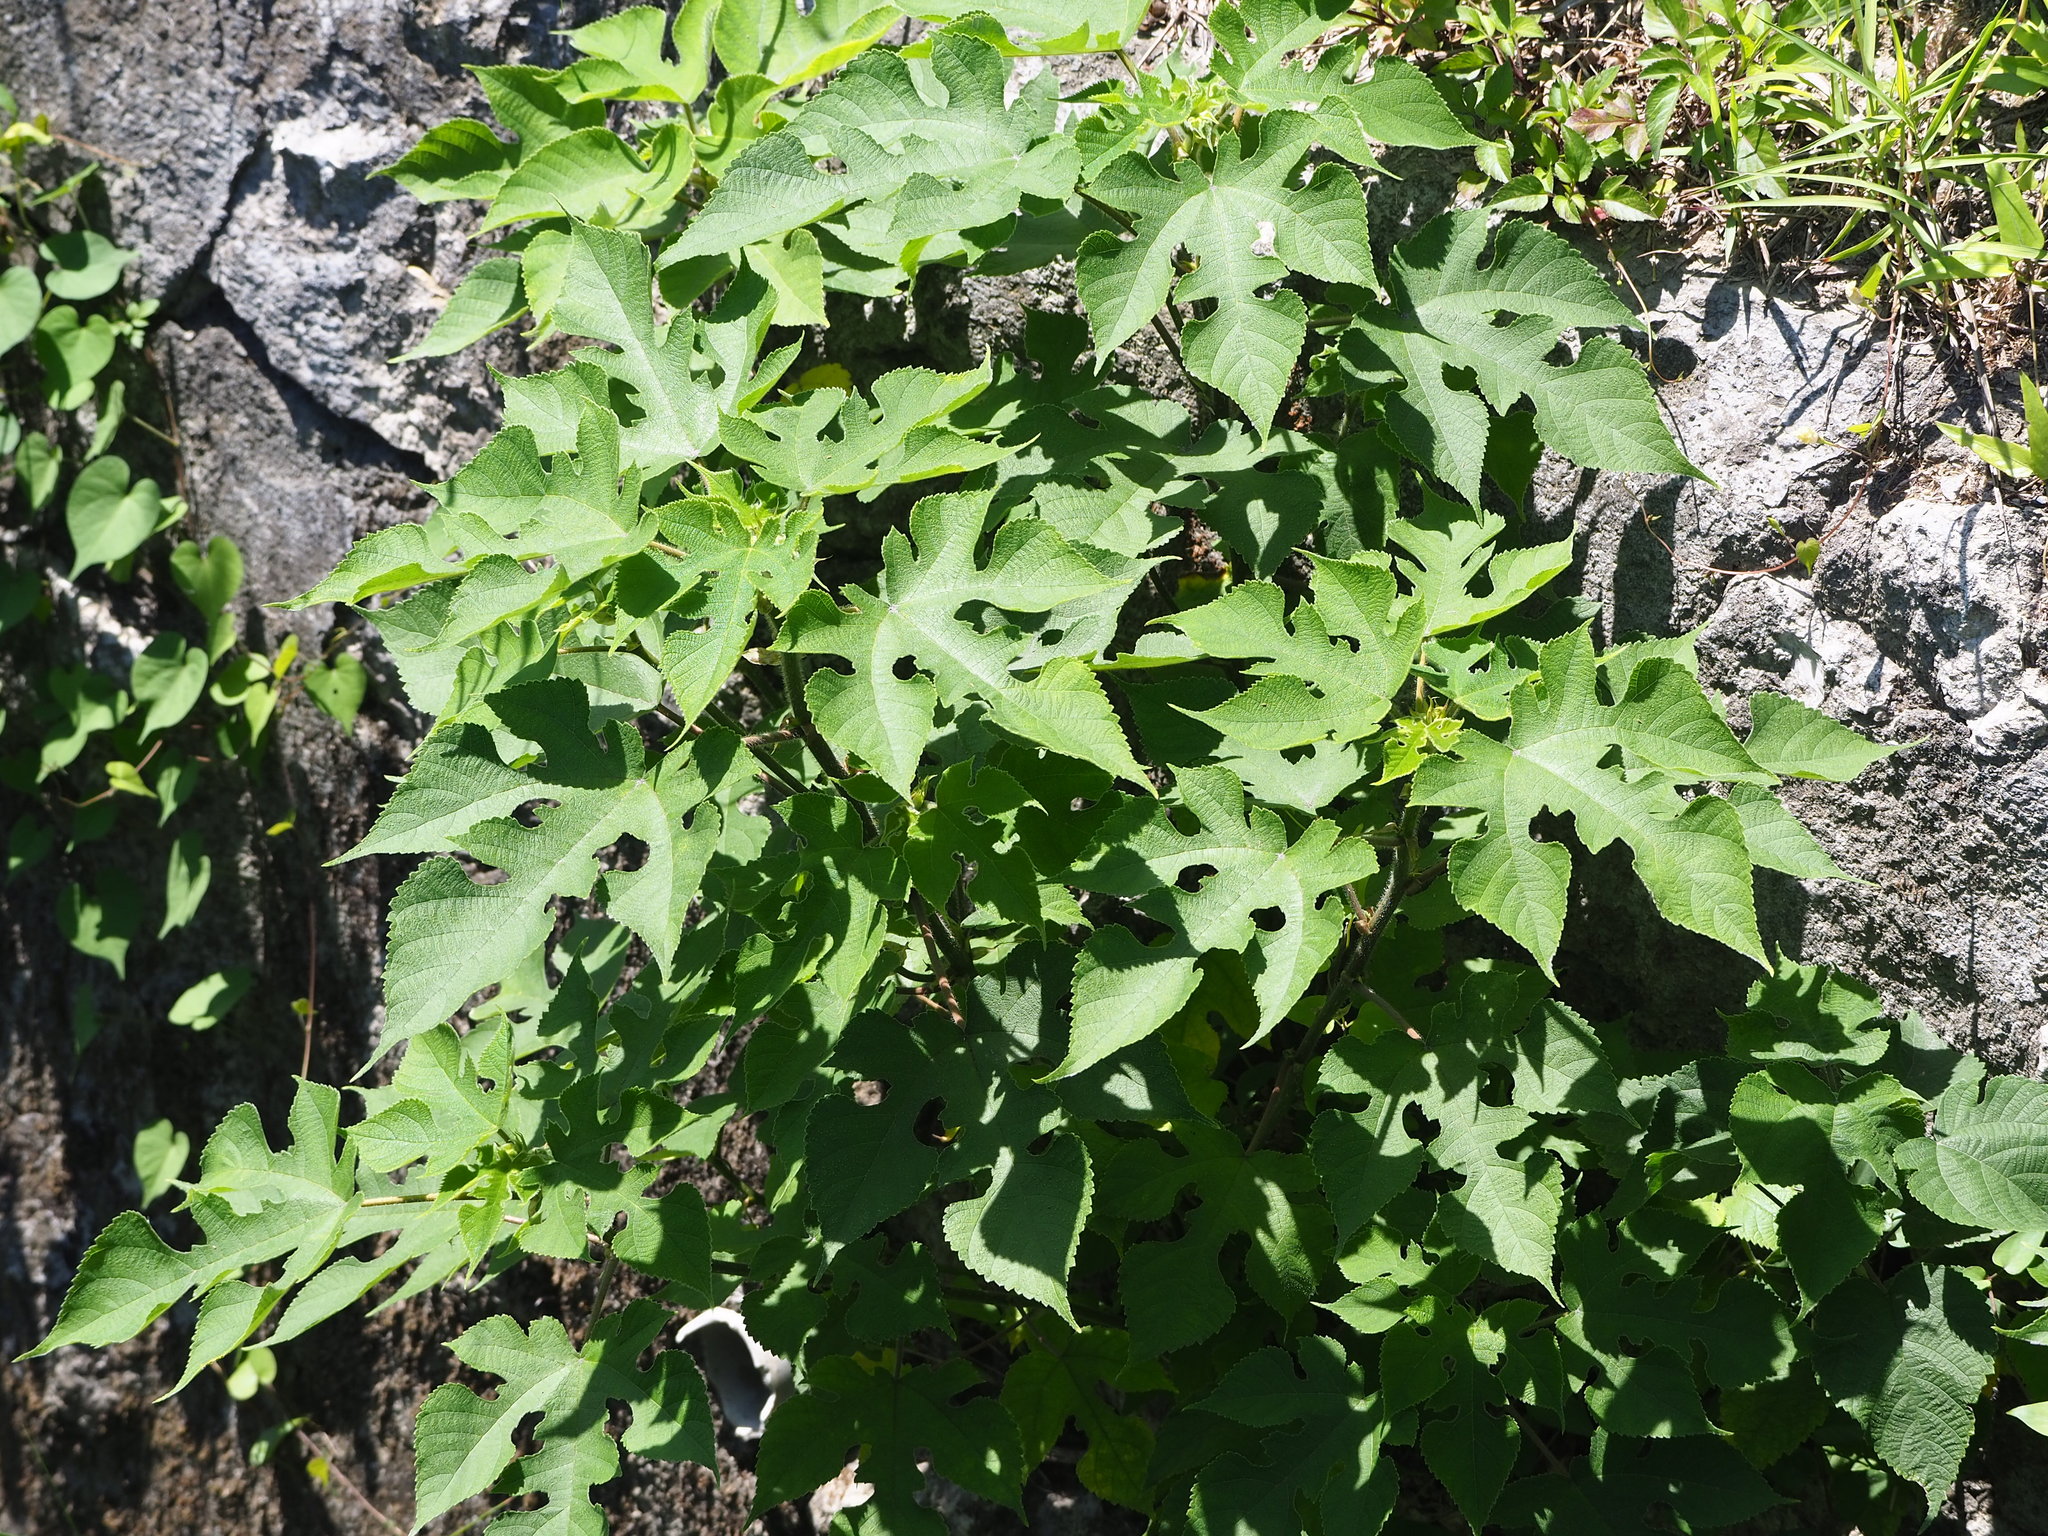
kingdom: Plantae
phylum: Tracheophyta
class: Magnoliopsida
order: Rosales
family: Moraceae
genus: Broussonetia
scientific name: Broussonetia papyrifera
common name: Paper mulberry
